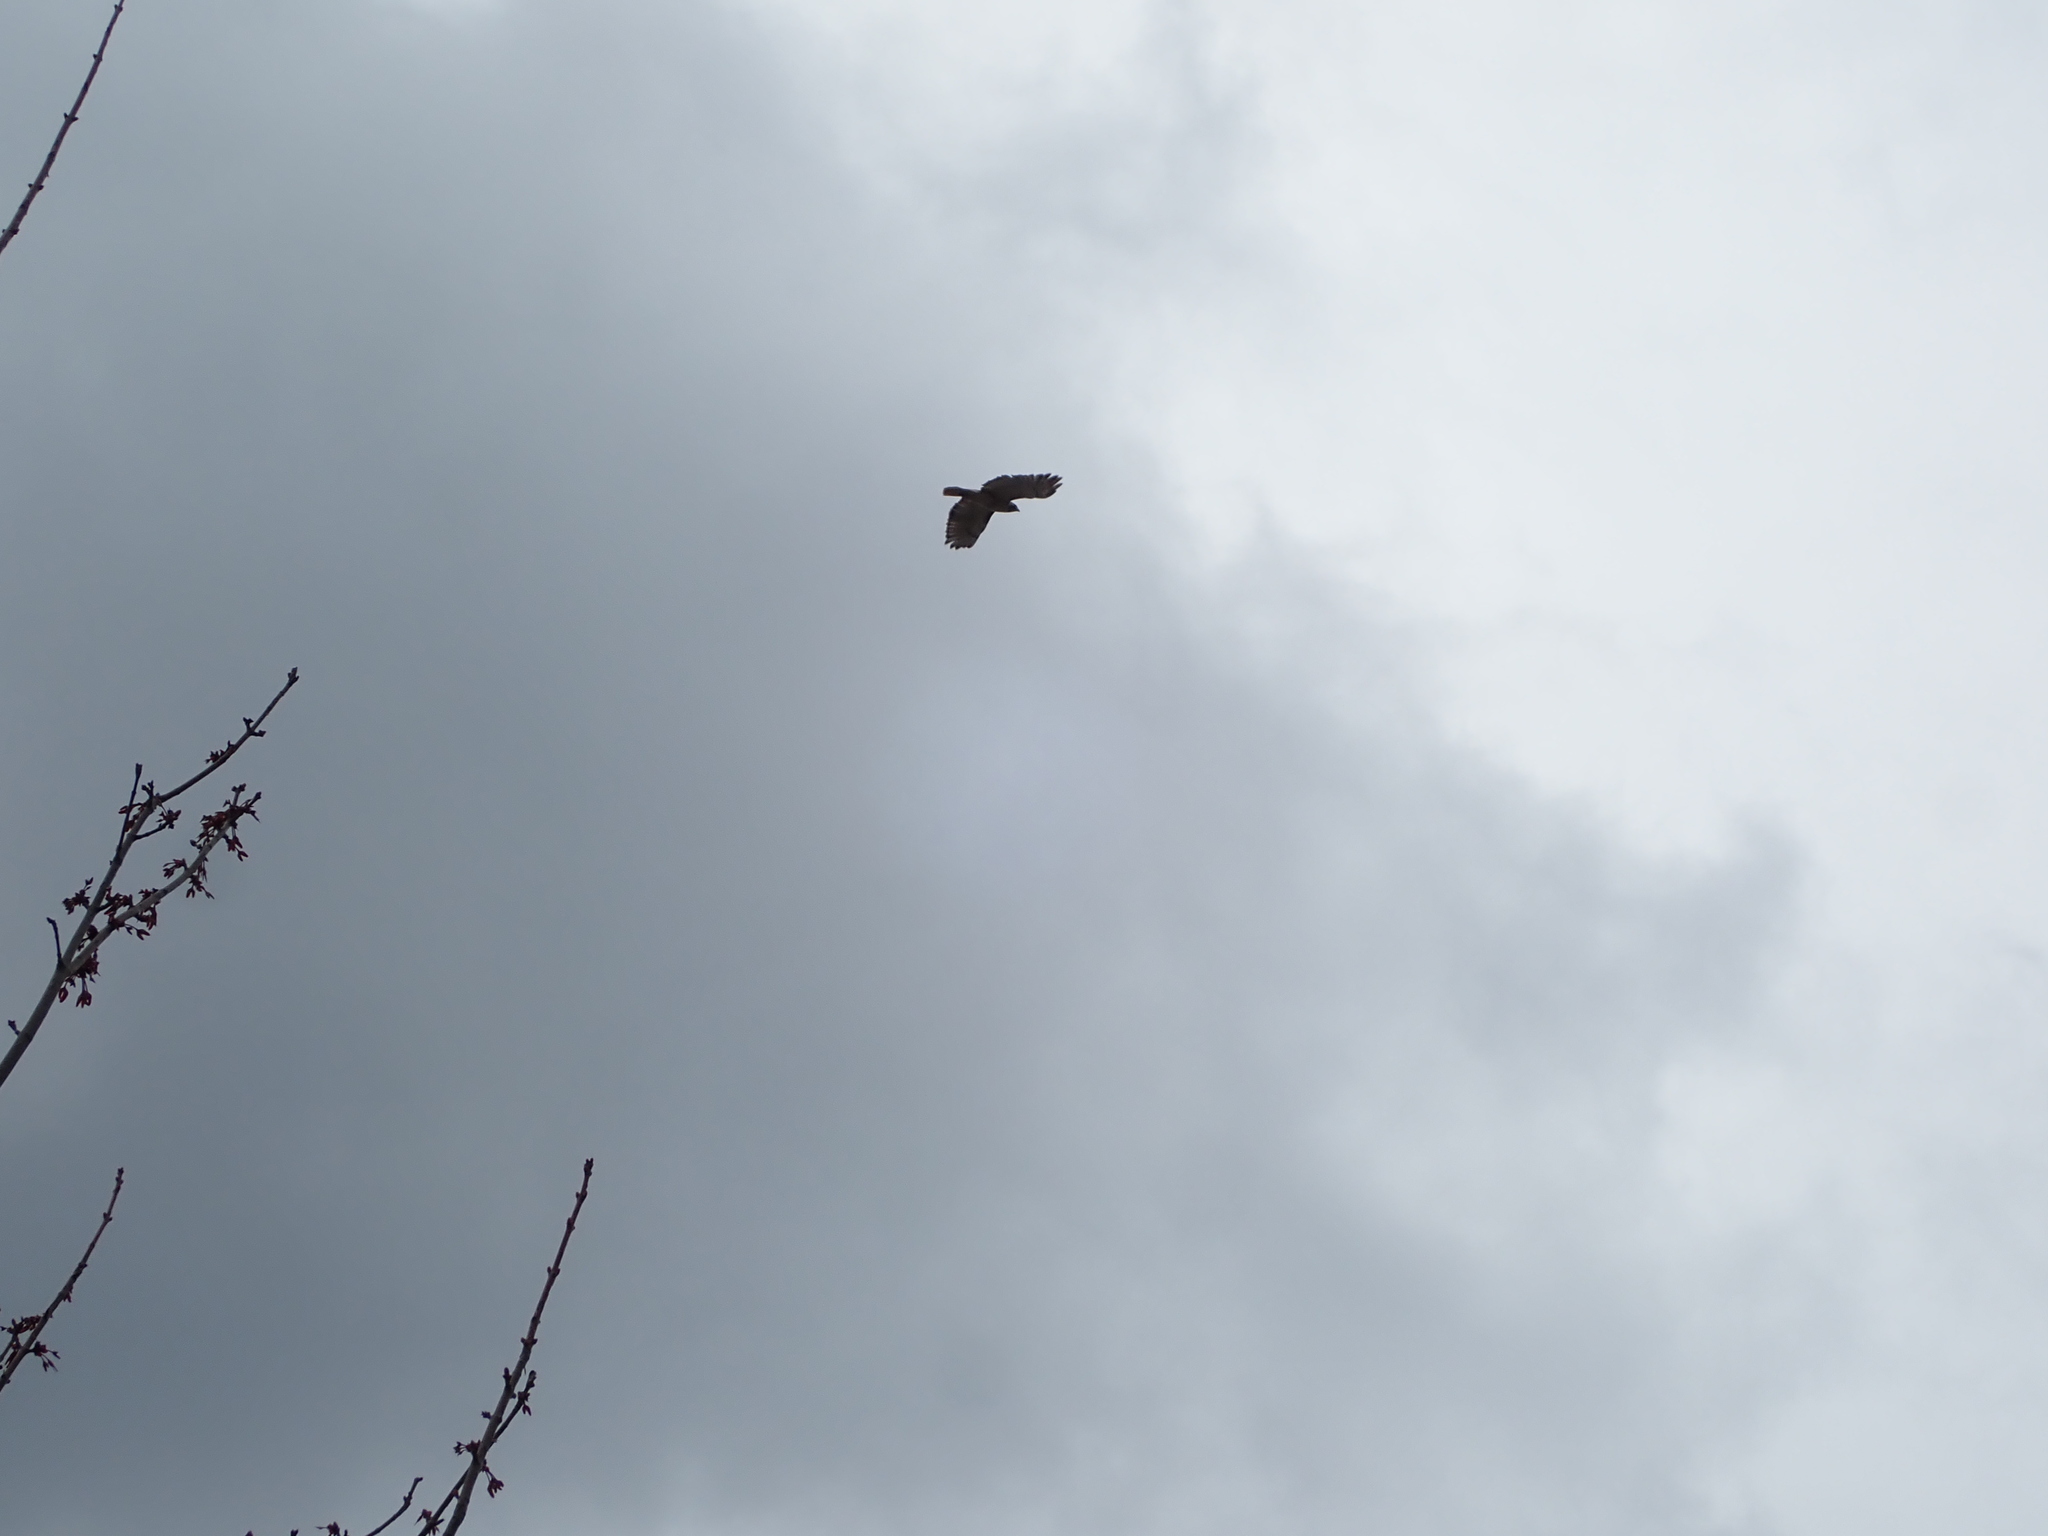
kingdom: Animalia
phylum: Chordata
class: Aves
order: Accipitriformes
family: Accipitridae
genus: Buteo
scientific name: Buteo jamaicensis
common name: Red-tailed hawk
